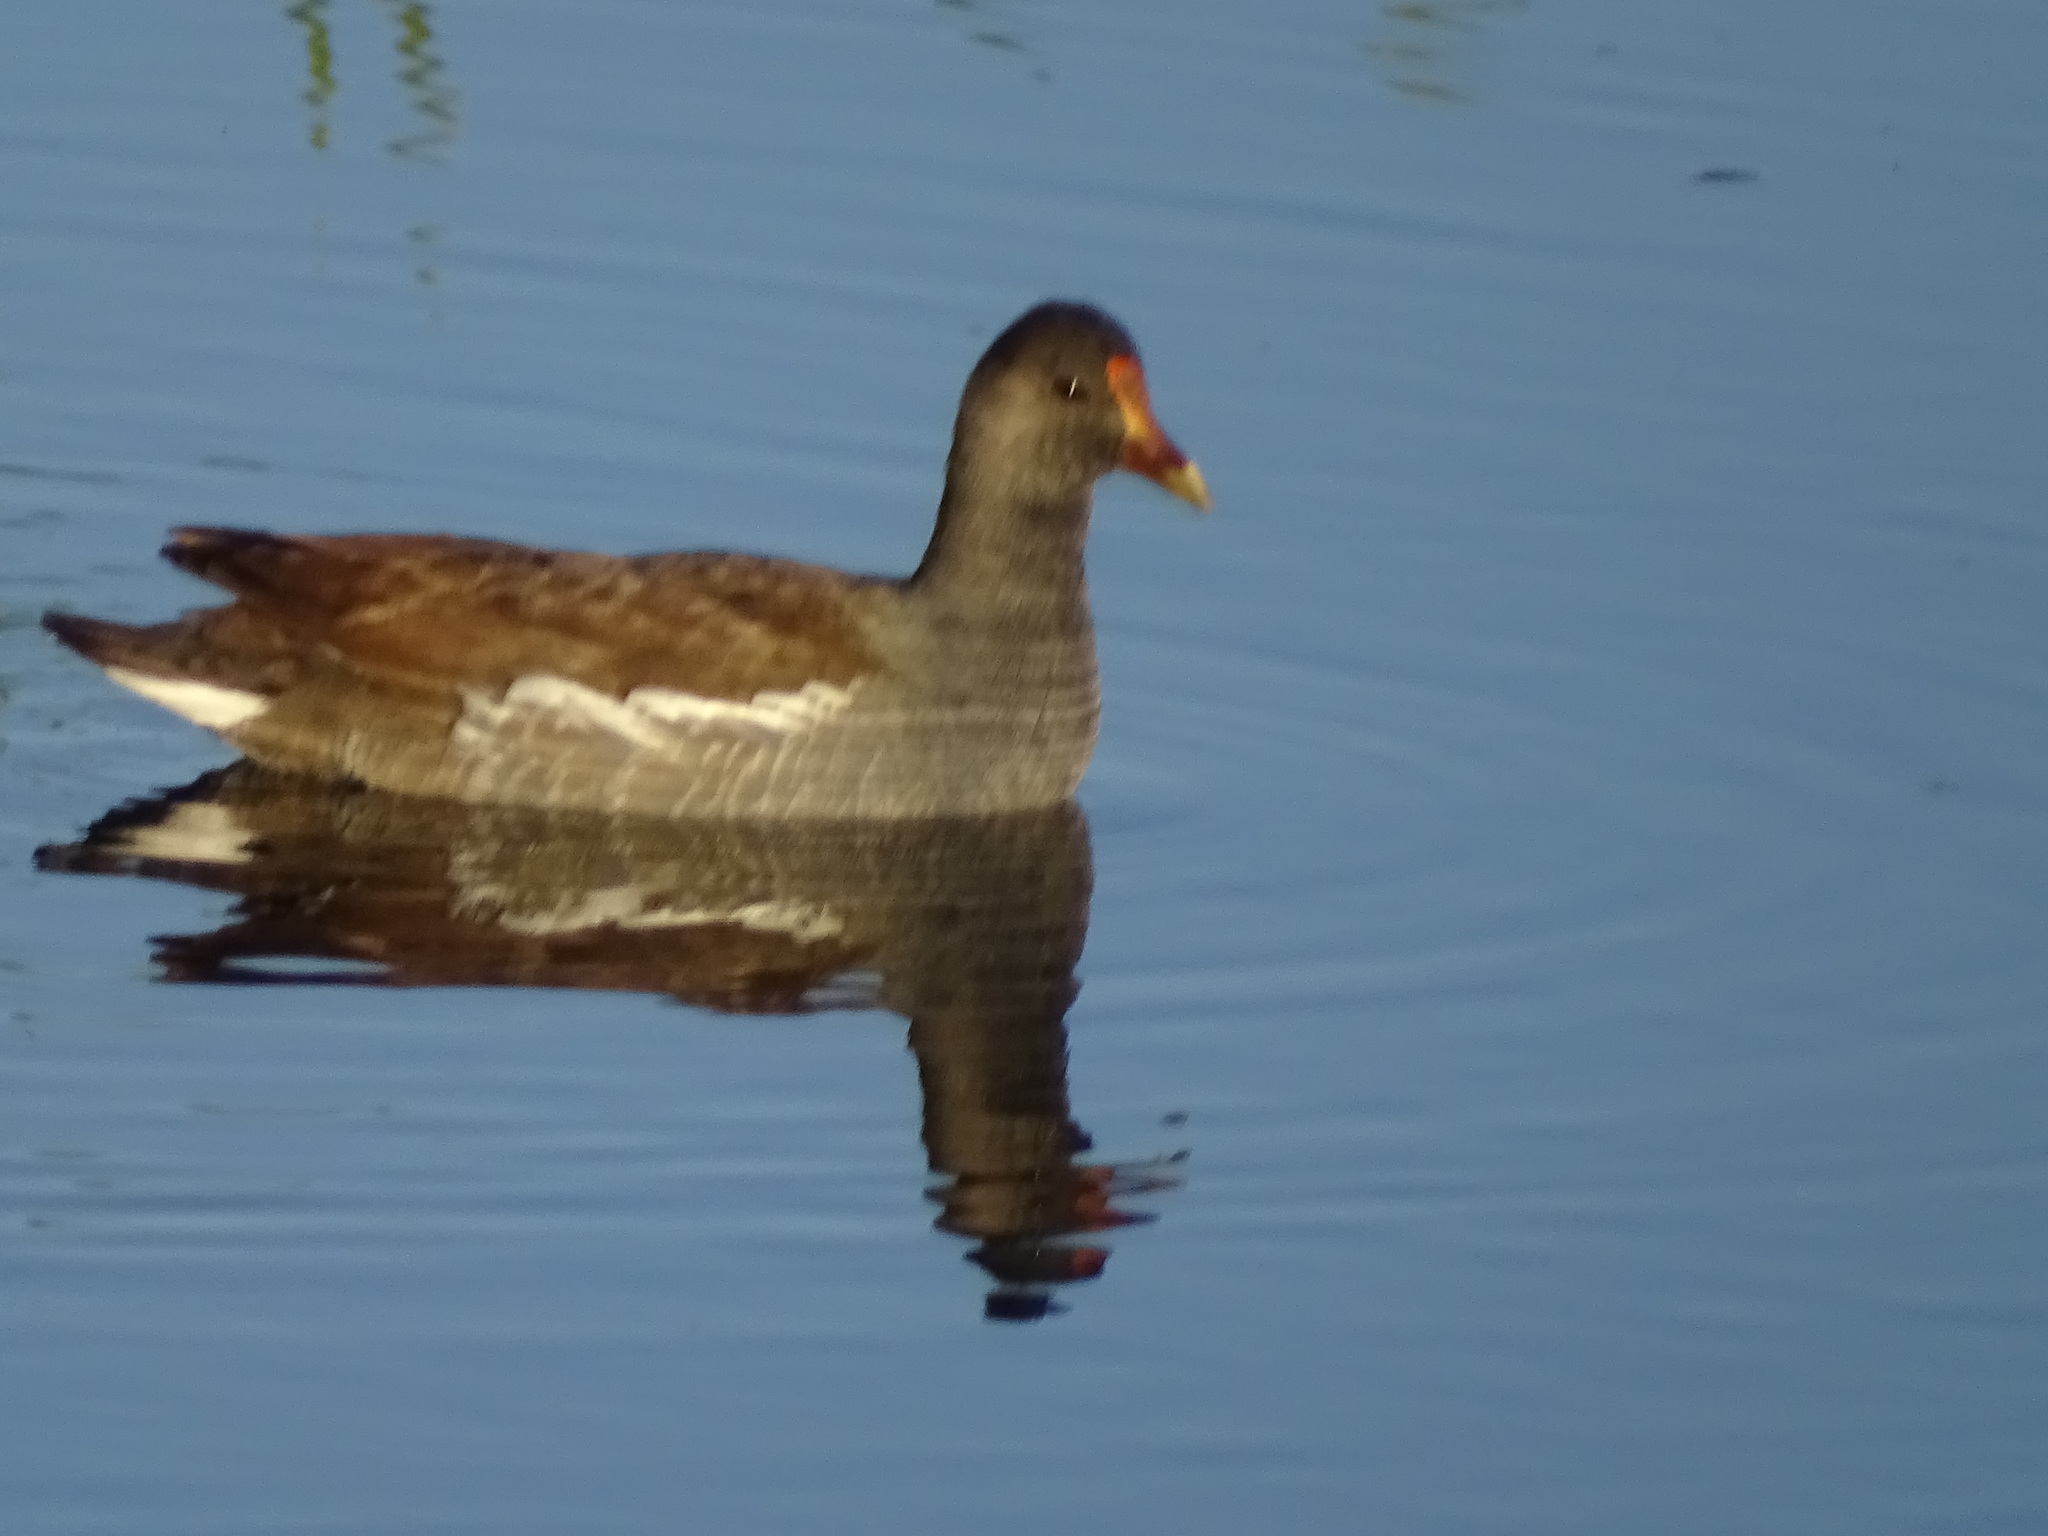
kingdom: Animalia
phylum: Chordata
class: Aves
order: Gruiformes
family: Rallidae
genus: Gallinula
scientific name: Gallinula chloropus
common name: Common moorhen
